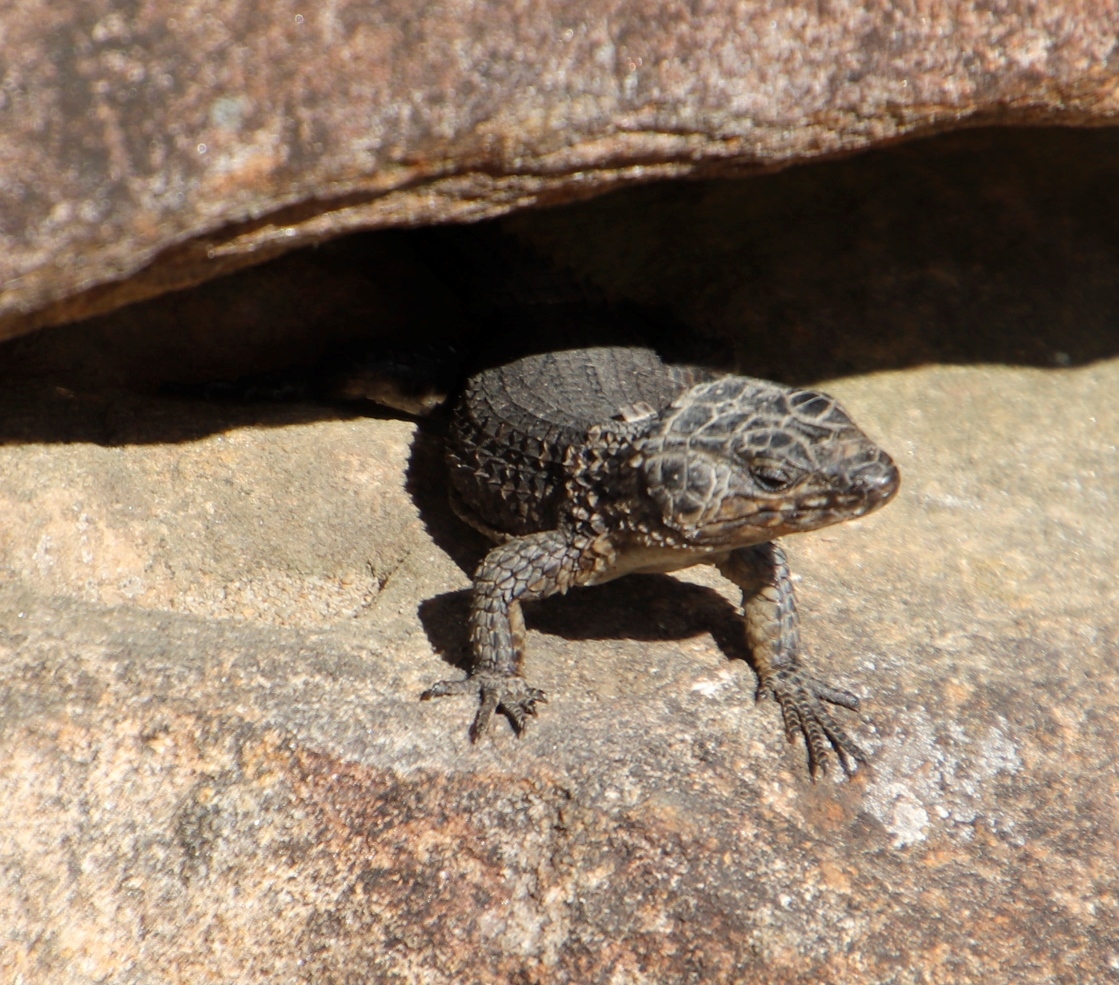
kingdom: Animalia
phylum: Chordata
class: Squamata
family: Cordylidae
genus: Cordylus
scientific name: Cordylus niger
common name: Black girdled lizard
